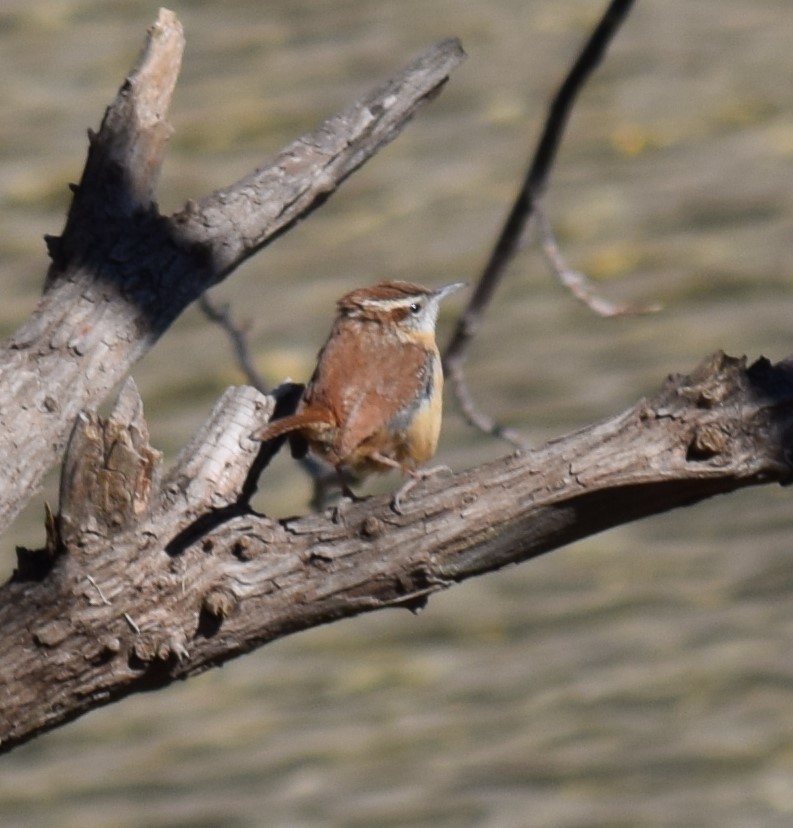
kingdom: Animalia
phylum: Chordata
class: Aves
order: Passeriformes
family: Troglodytidae
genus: Thryothorus
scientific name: Thryothorus ludovicianus
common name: Carolina wren
